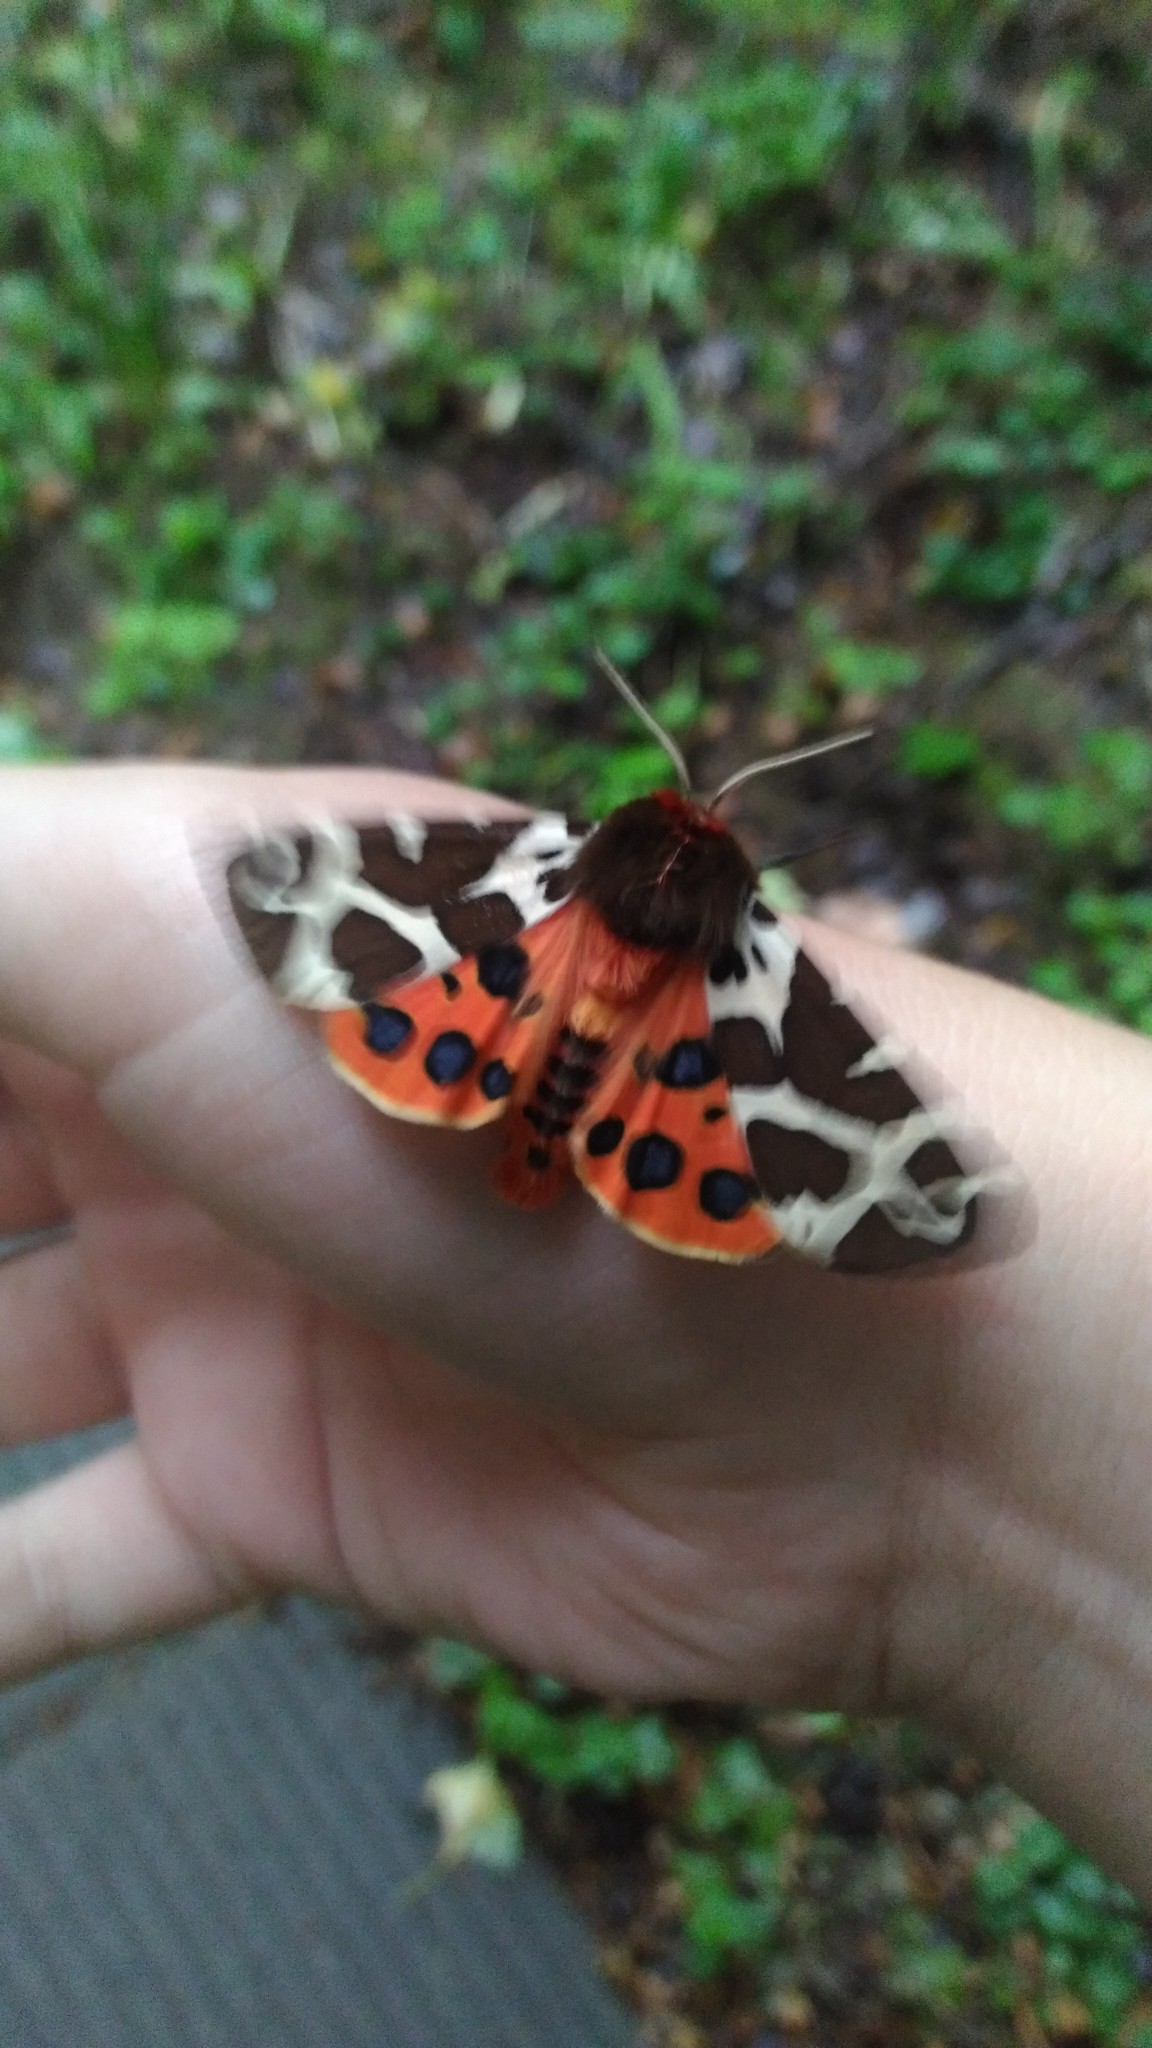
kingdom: Animalia
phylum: Arthropoda
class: Insecta
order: Lepidoptera
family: Erebidae
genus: Arctia
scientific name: Arctia caja
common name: Garden tiger
